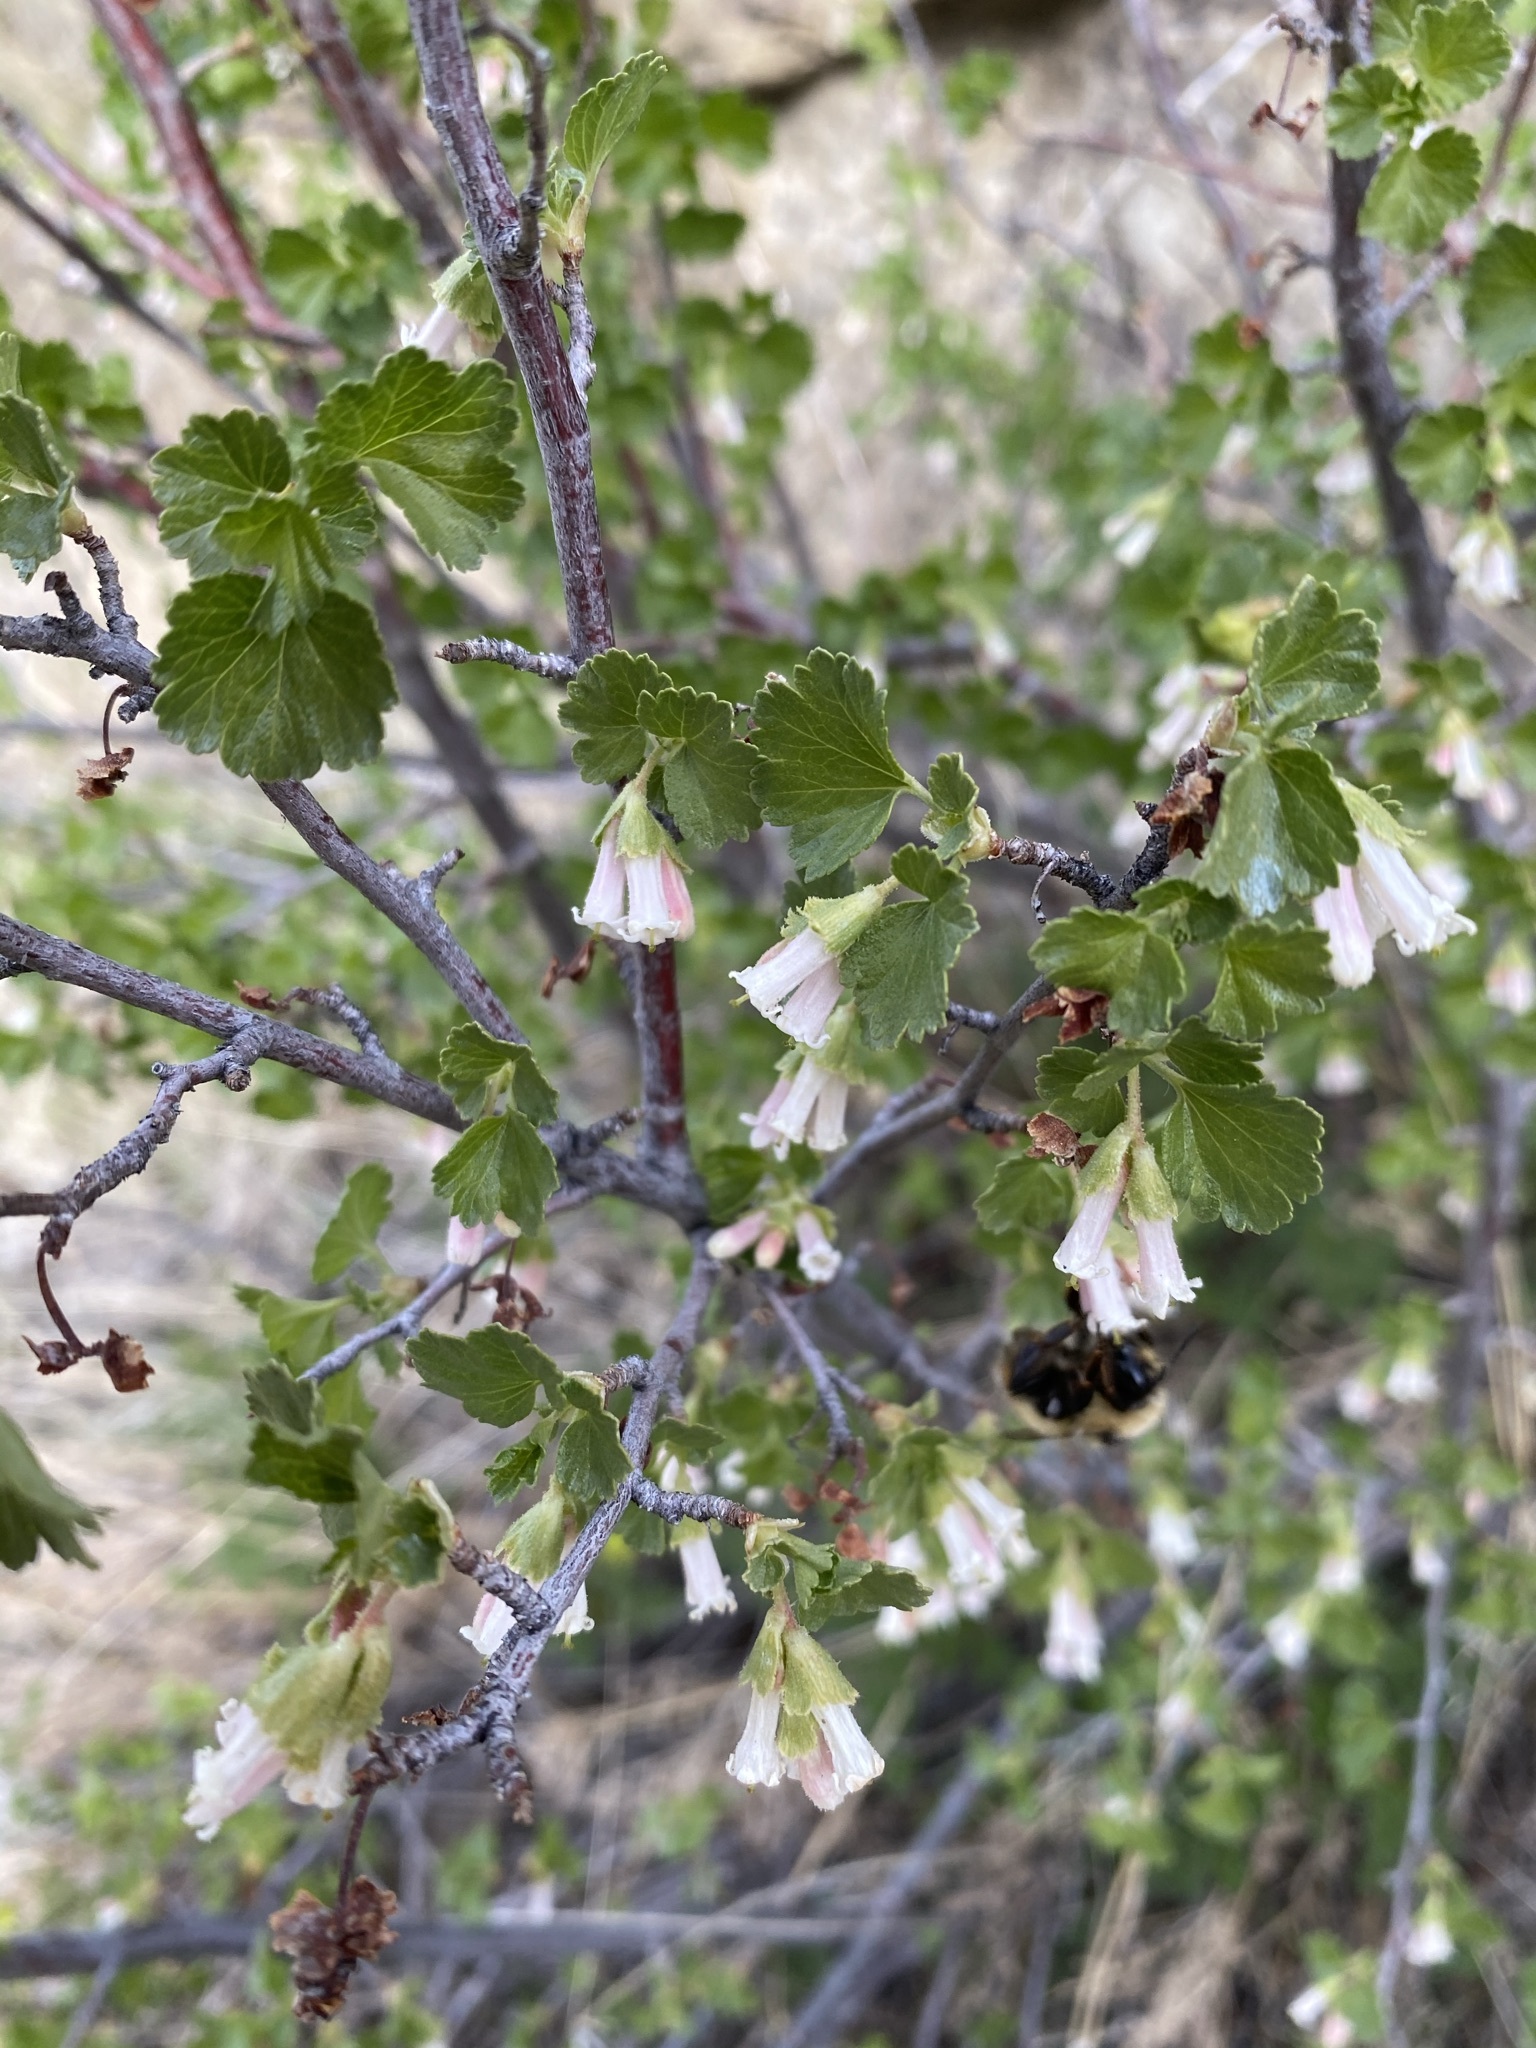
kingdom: Plantae
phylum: Tracheophyta
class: Magnoliopsida
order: Saxifragales
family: Grossulariaceae
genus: Ribes
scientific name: Ribes cereum
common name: Wax currant
